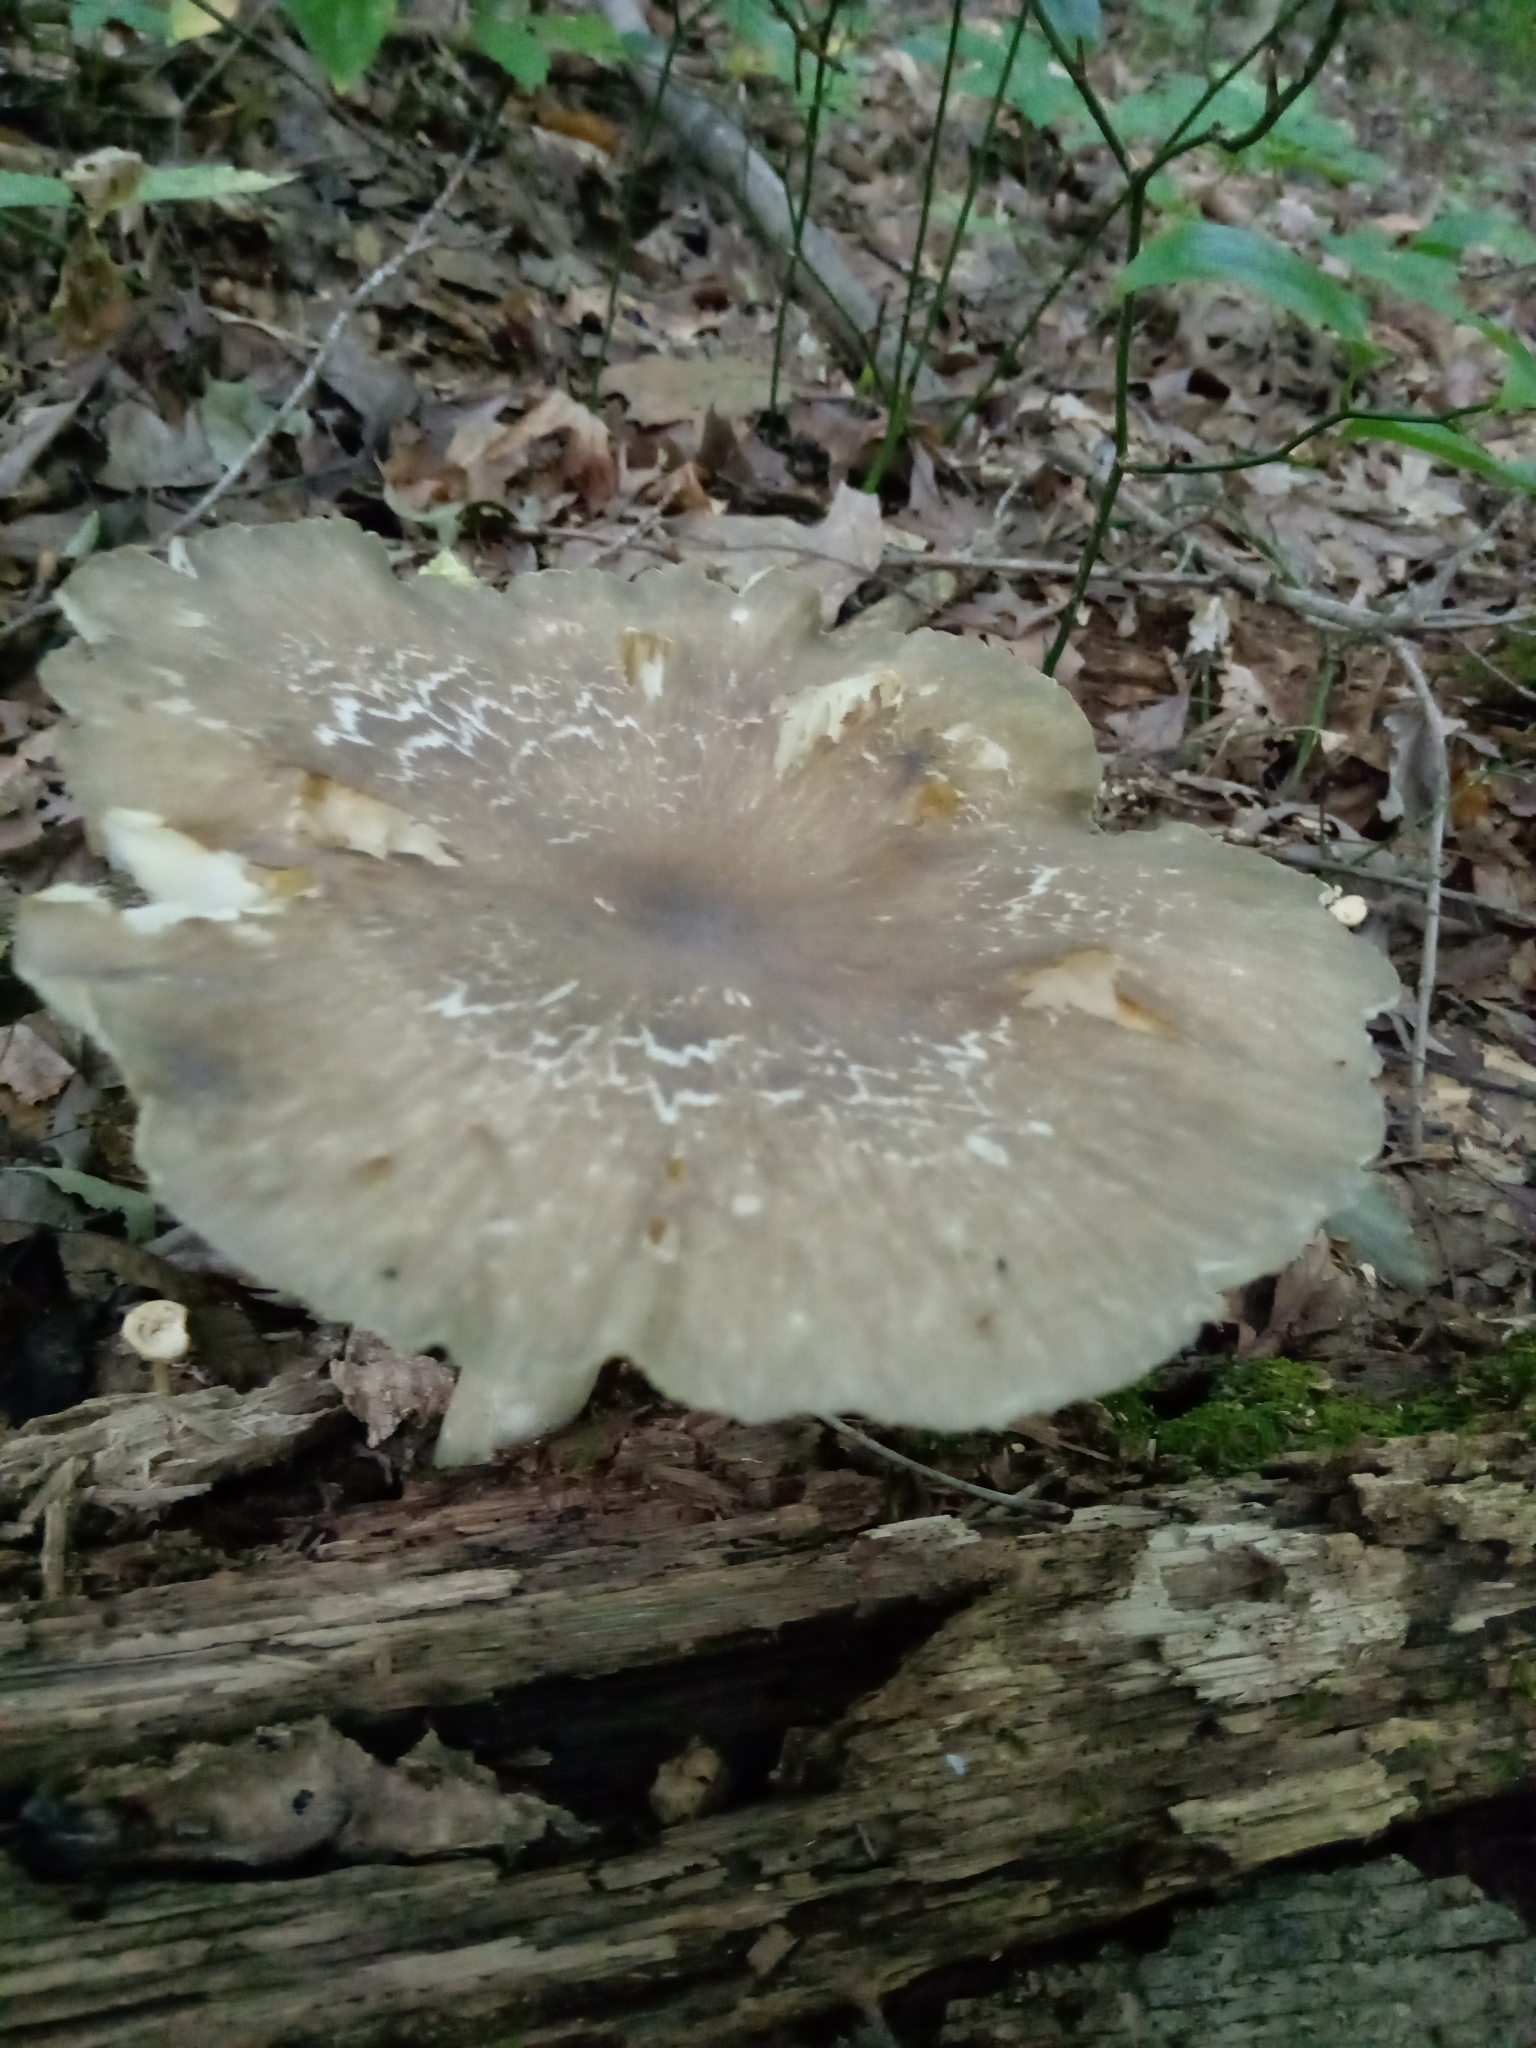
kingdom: Fungi
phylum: Basidiomycota
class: Agaricomycetes
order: Agaricales
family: Tricholomataceae
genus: Megacollybia
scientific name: Megacollybia rodmanii
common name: Eastern american platterful mushroom
